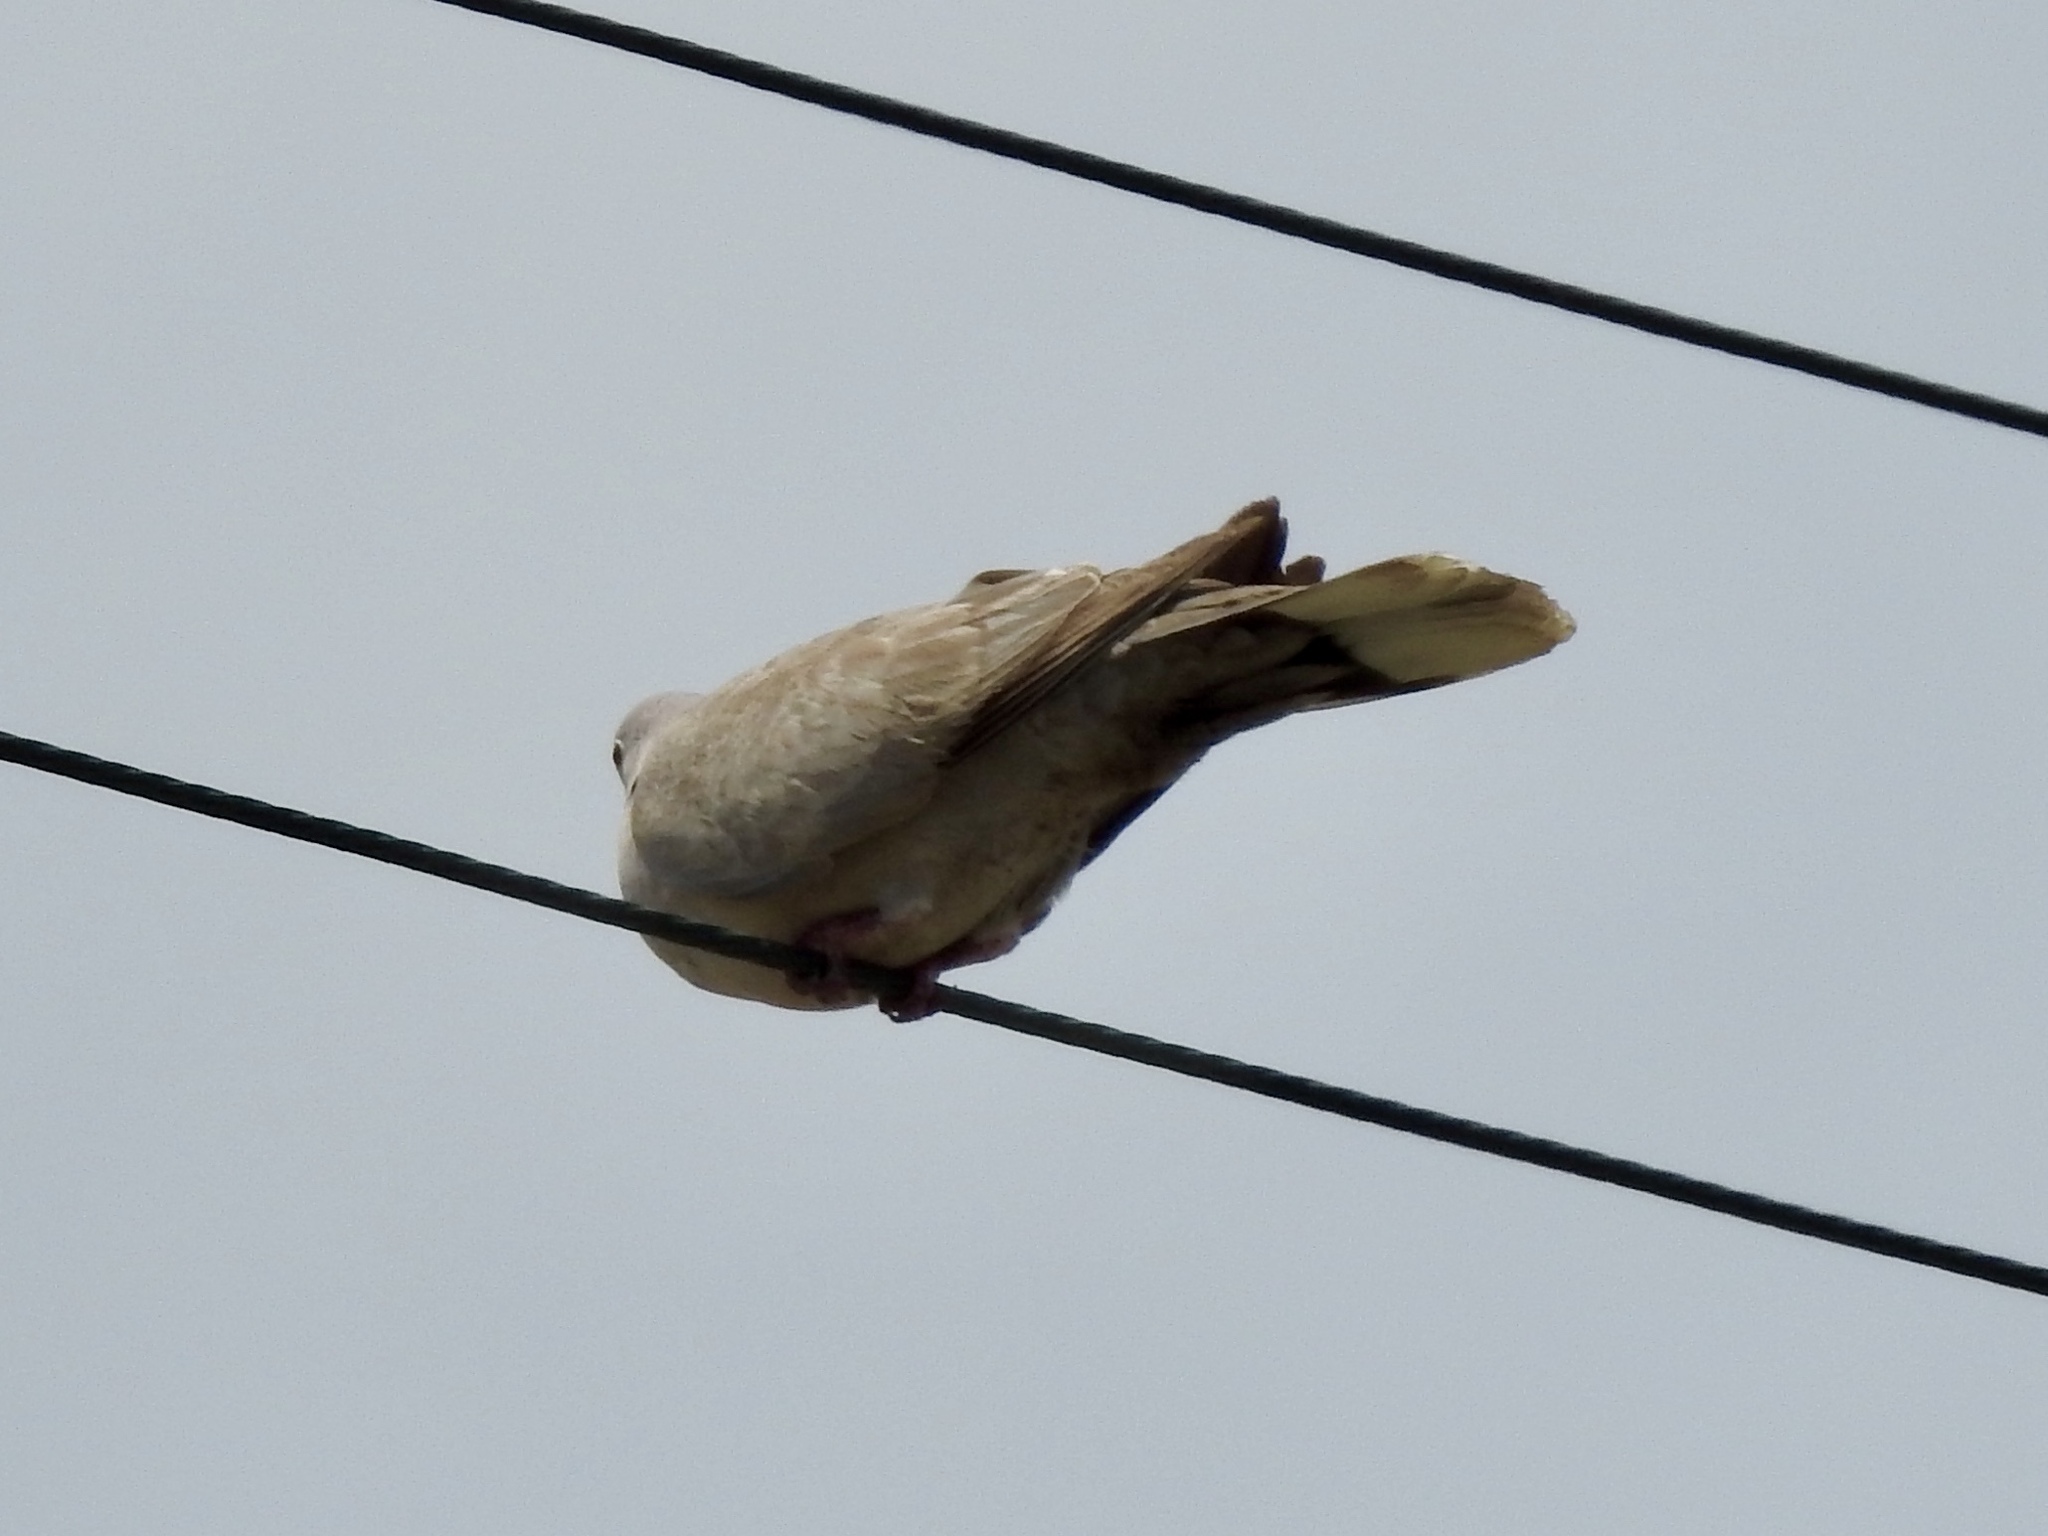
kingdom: Animalia
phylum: Chordata
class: Aves
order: Columbiformes
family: Columbidae
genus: Streptopelia
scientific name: Streptopelia decaocto
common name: Eurasian collared dove
